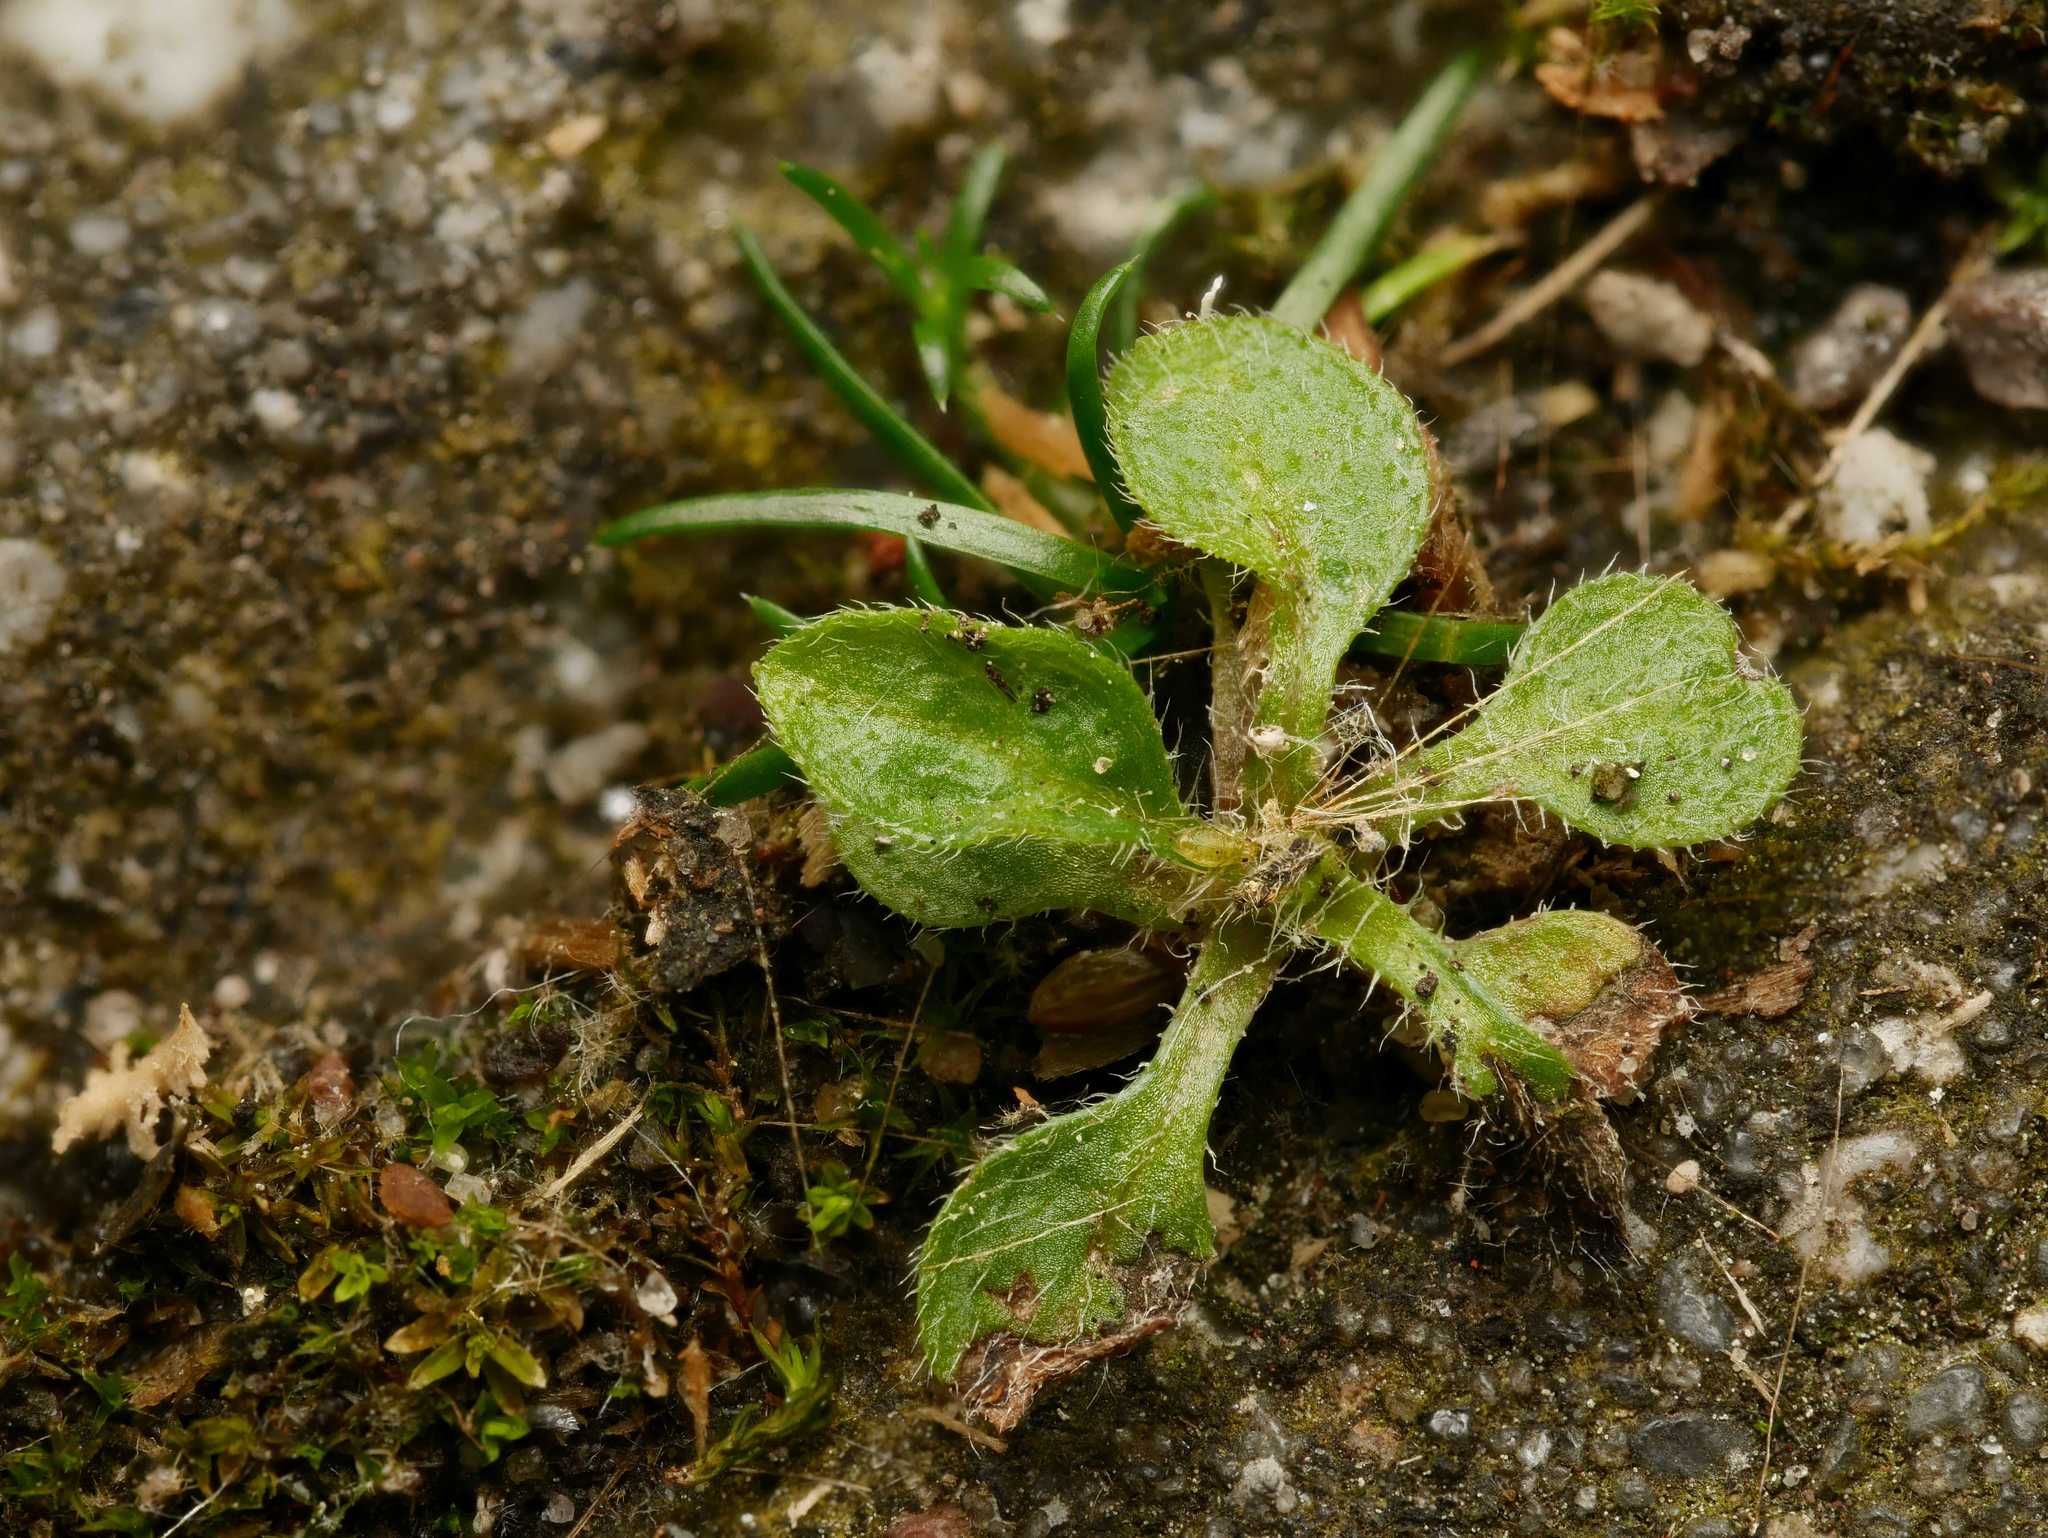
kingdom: Plantae
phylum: Tracheophyta
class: Magnoliopsida
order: Brassicales
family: Brassicaceae
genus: Arabidopsis
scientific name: Arabidopsis thaliana
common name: Thale cress
